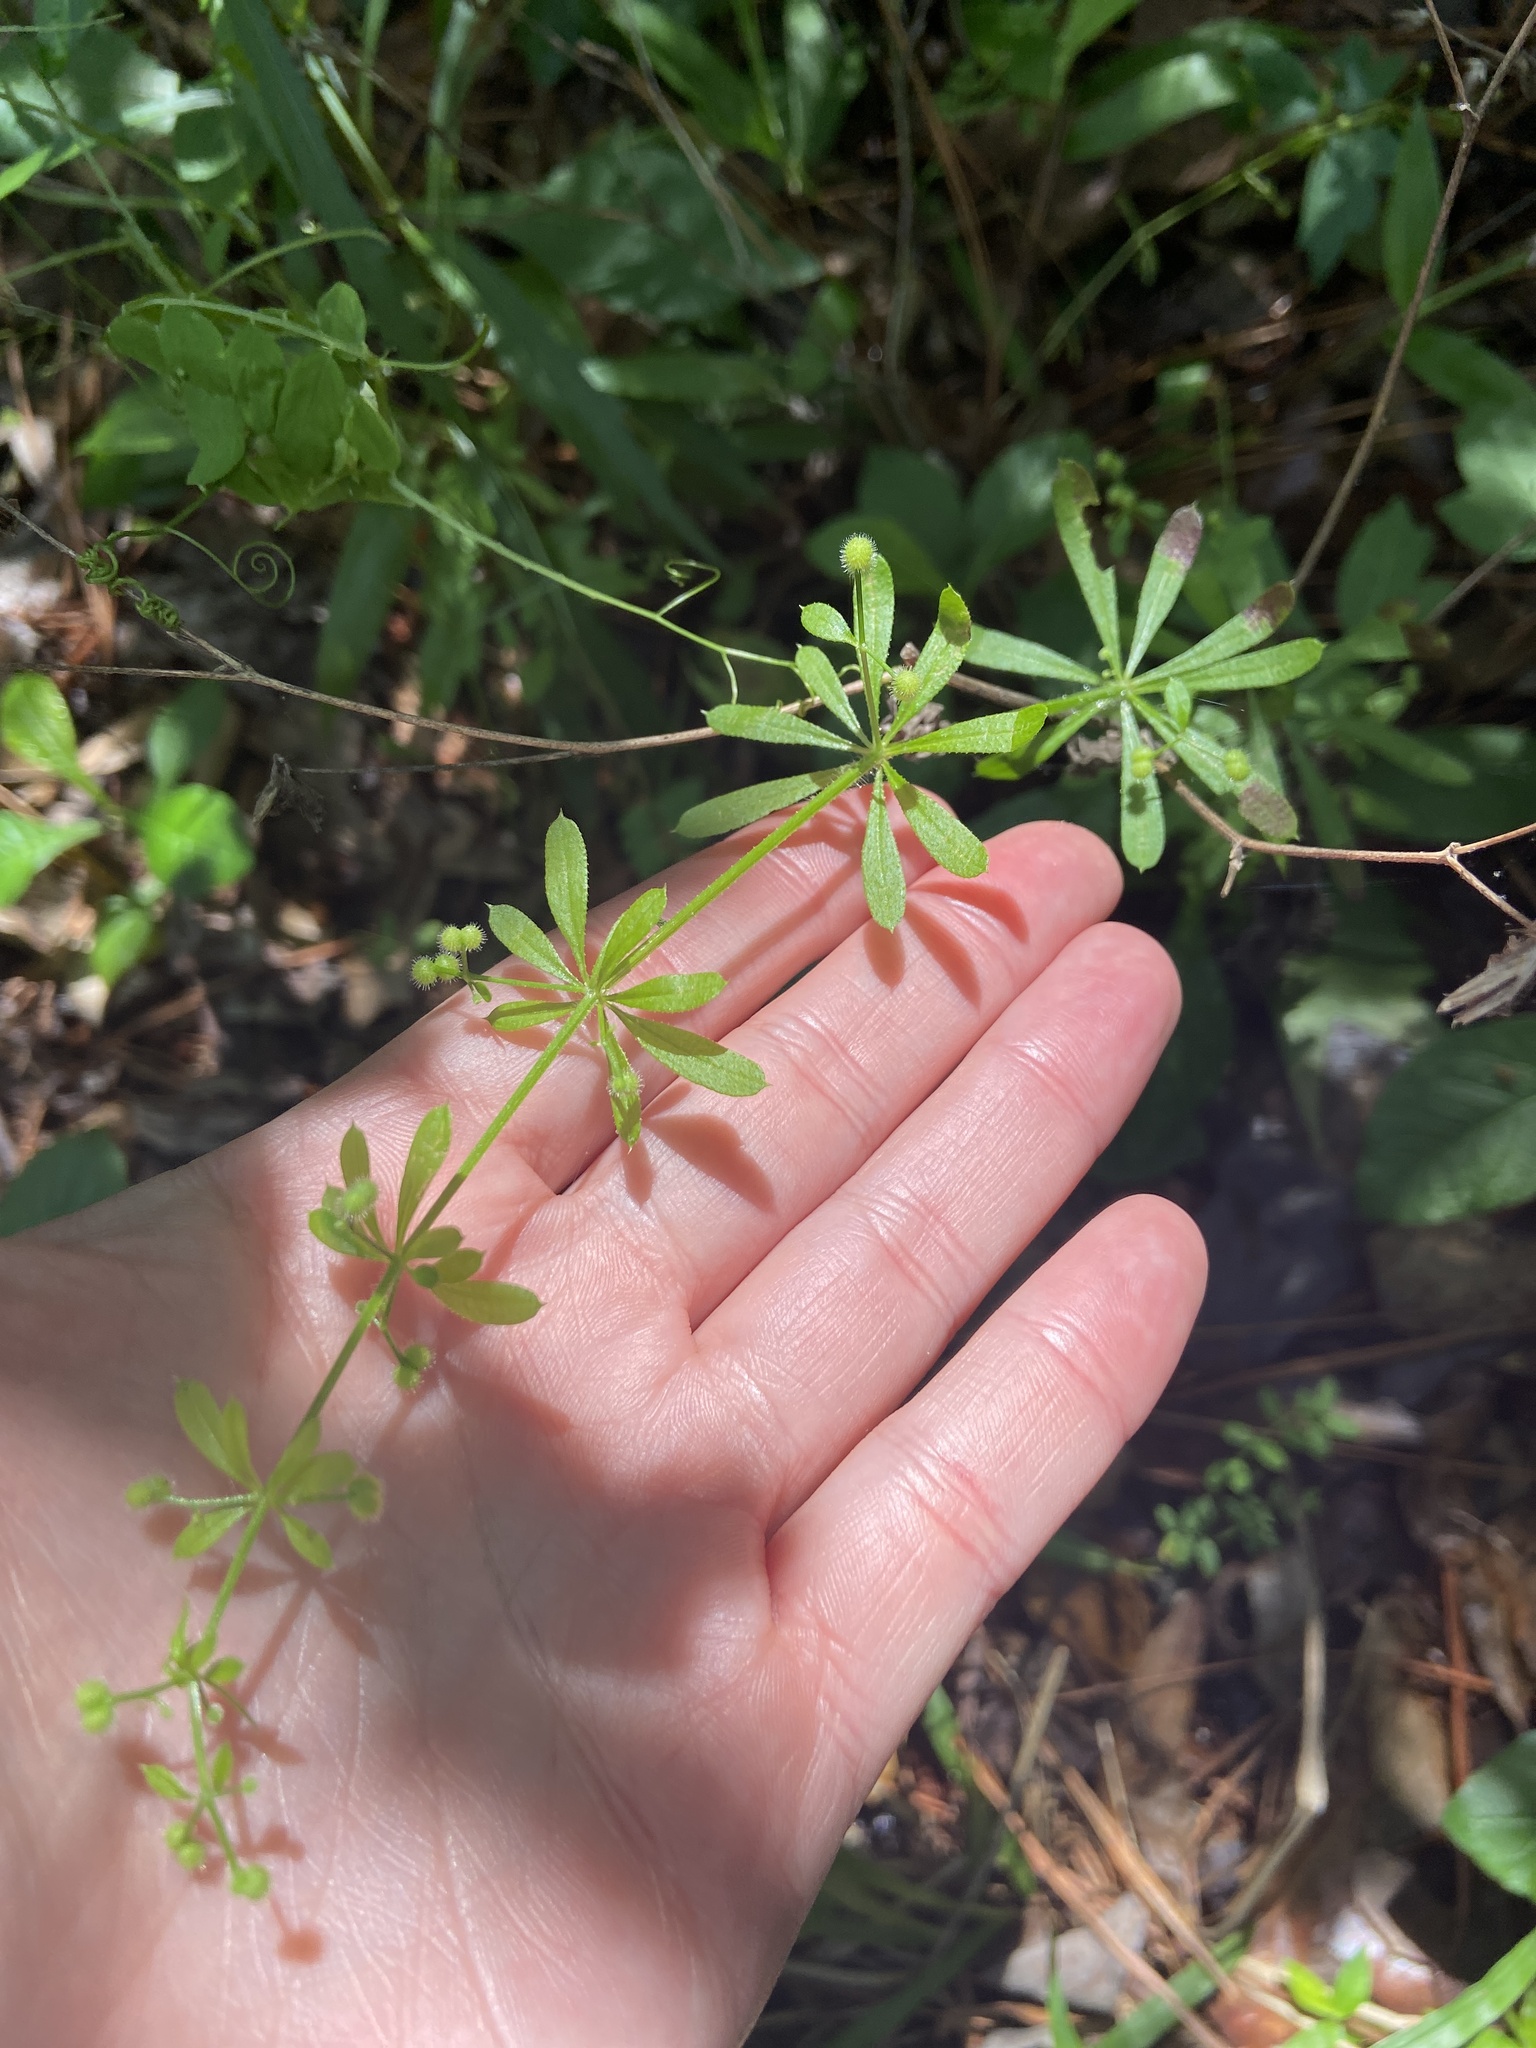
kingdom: Plantae
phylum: Tracheophyta
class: Magnoliopsida
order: Gentianales
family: Rubiaceae
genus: Galium
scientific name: Galium aparine
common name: Cleavers
